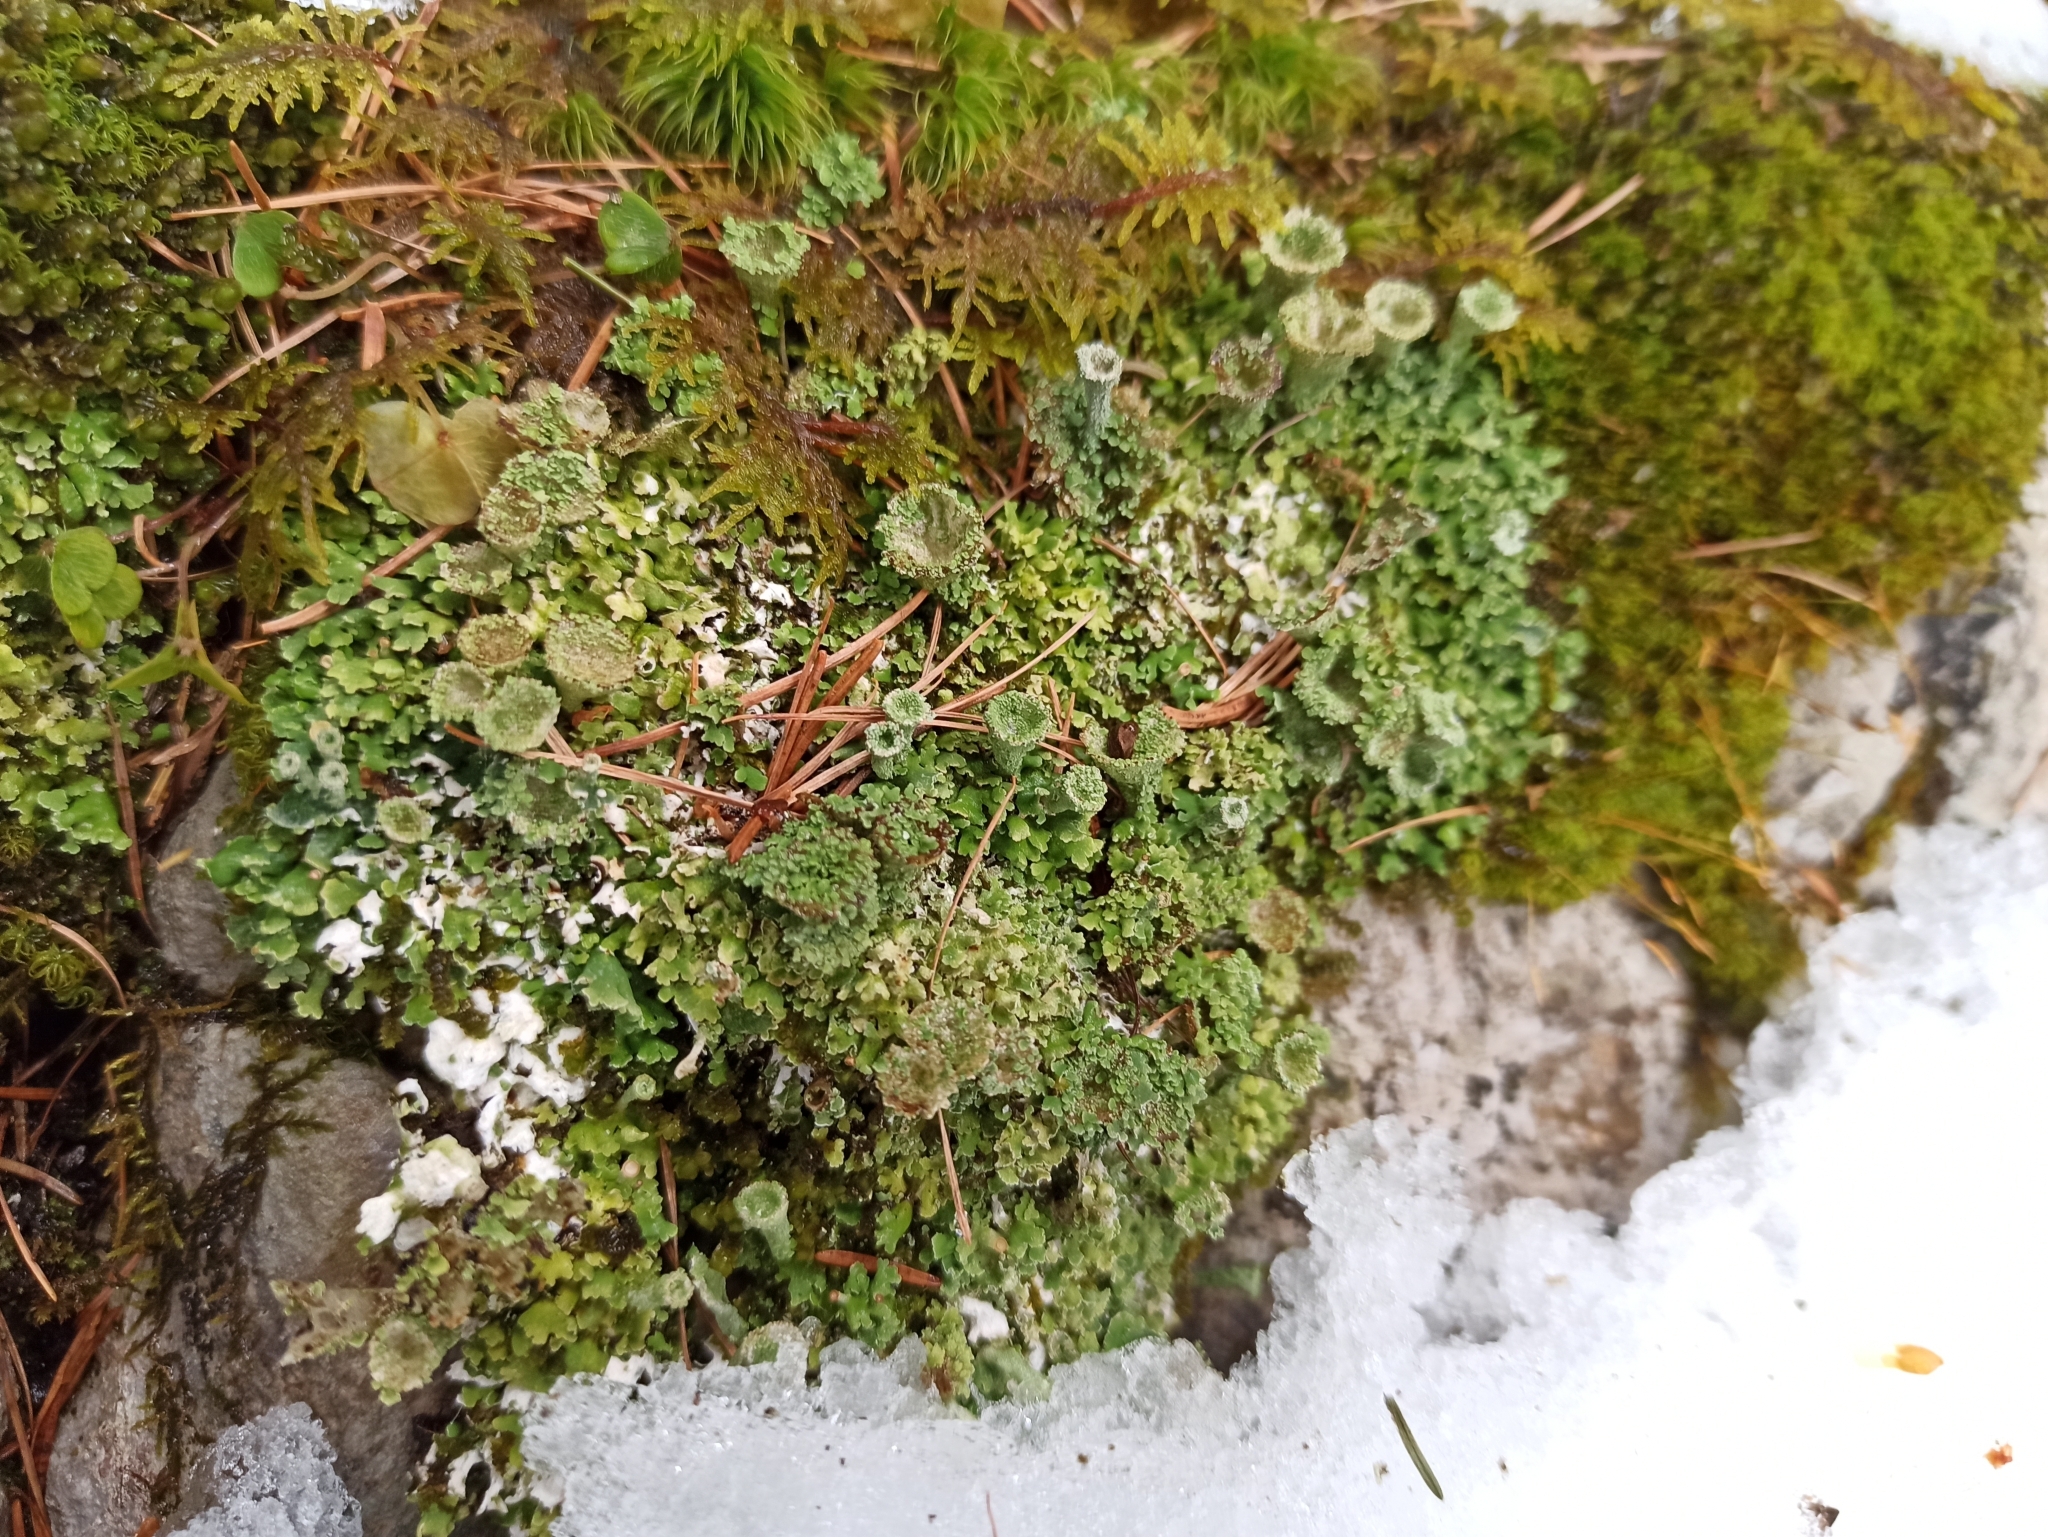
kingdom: Fungi
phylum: Ascomycota
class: Lecanoromycetes
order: Lecanorales
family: Cladoniaceae
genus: Cladonia
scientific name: Cladonia pyxidata
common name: Pebbled pixie cup
